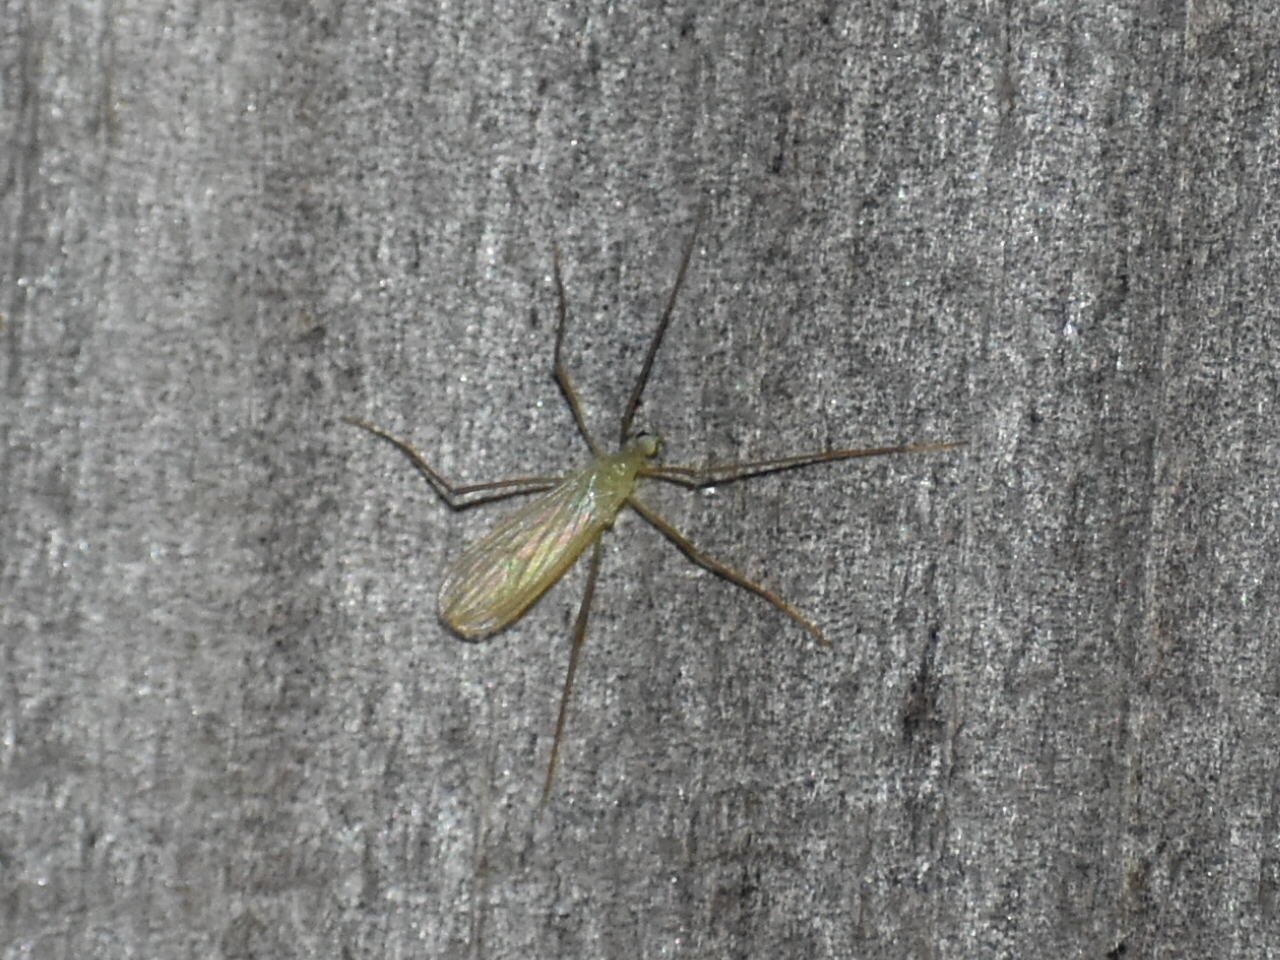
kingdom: Animalia
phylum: Arthropoda
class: Insecta
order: Diptera
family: Limoniidae
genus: Erioptera
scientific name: Erioptera
